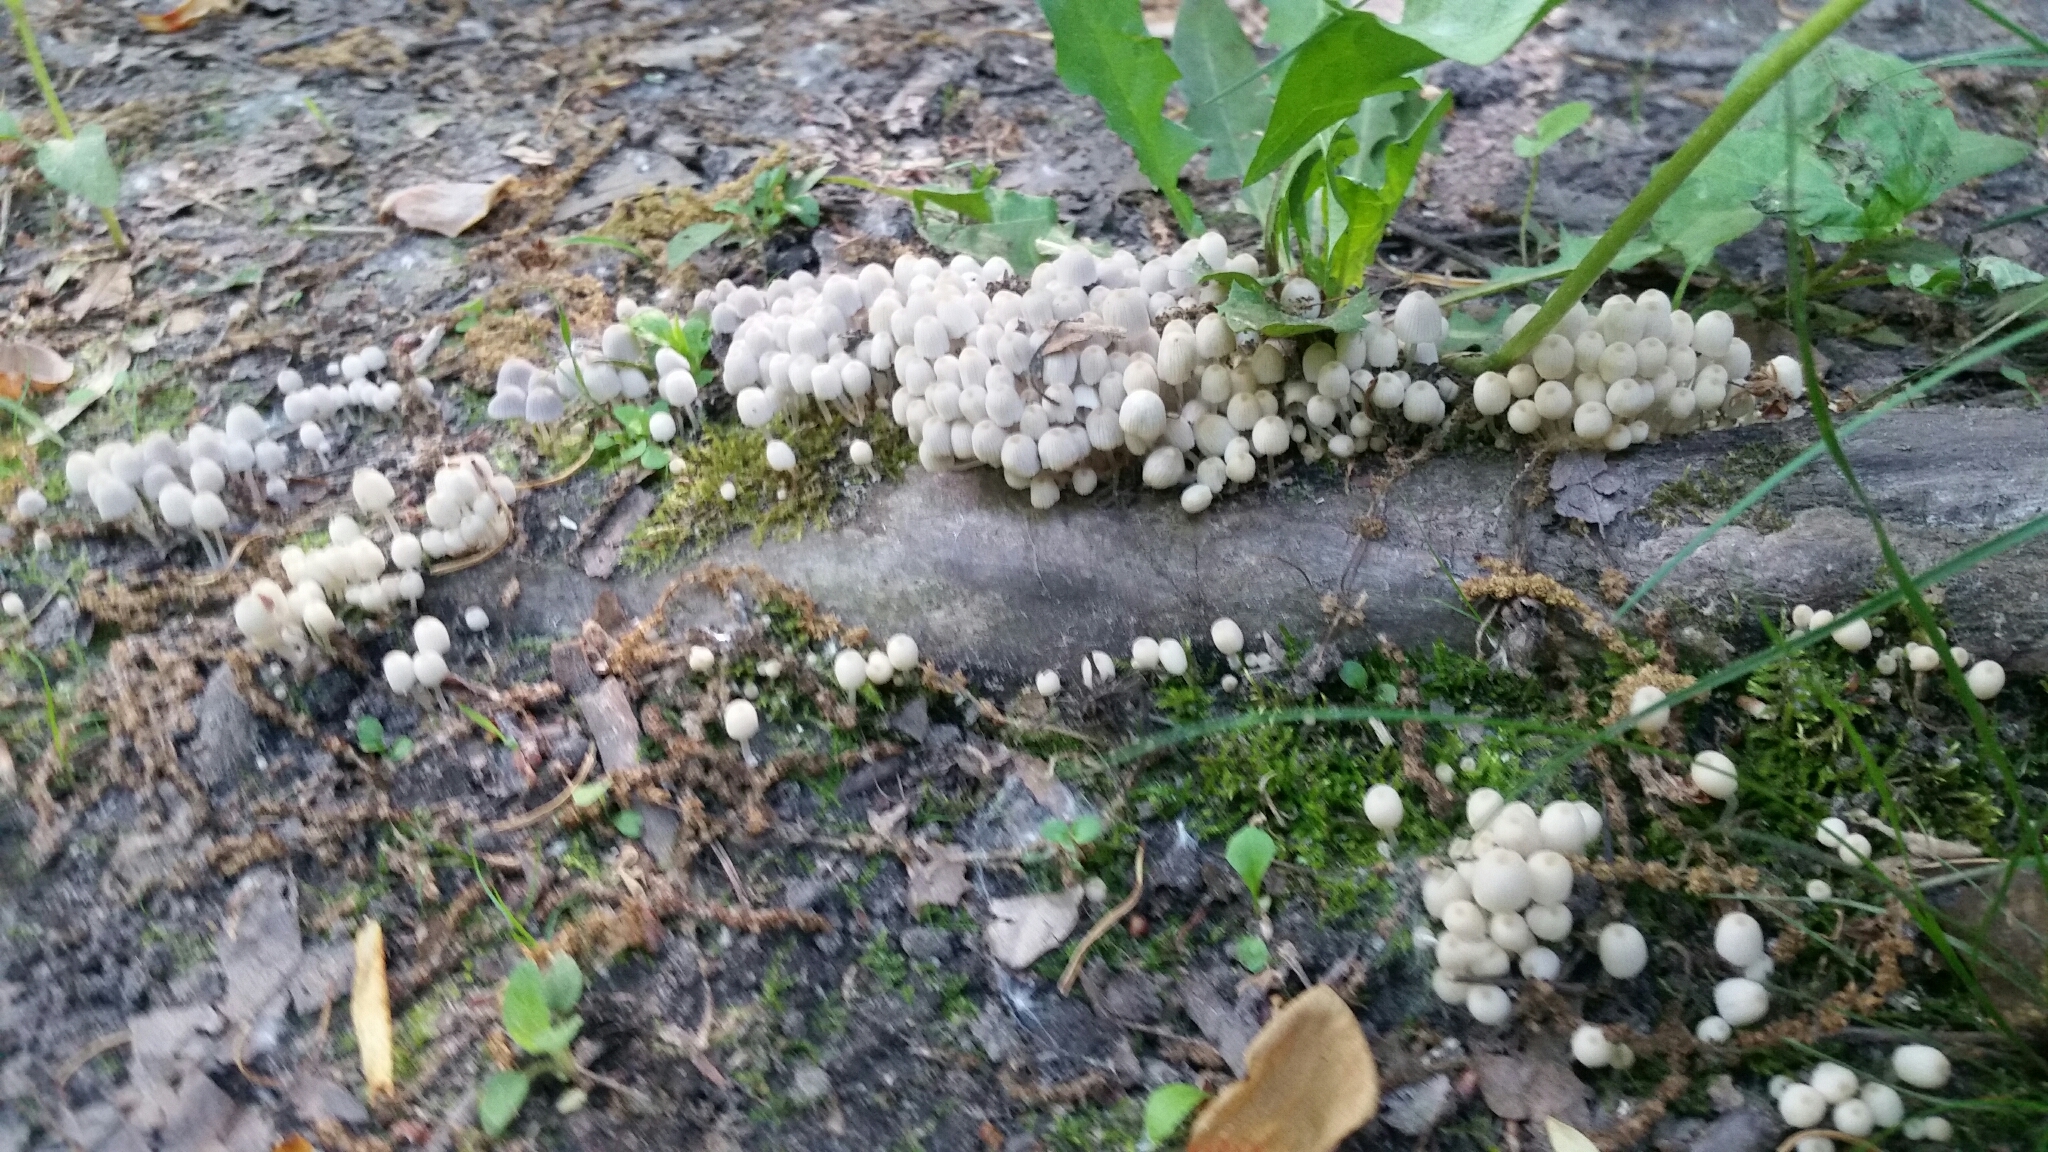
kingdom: Fungi
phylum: Basidiomycota
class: Agaricomycetes
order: Agaricales
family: Psathyrellaceae
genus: Coprinellus
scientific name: Coprinellus disseminatus
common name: Fairies' bonnets
